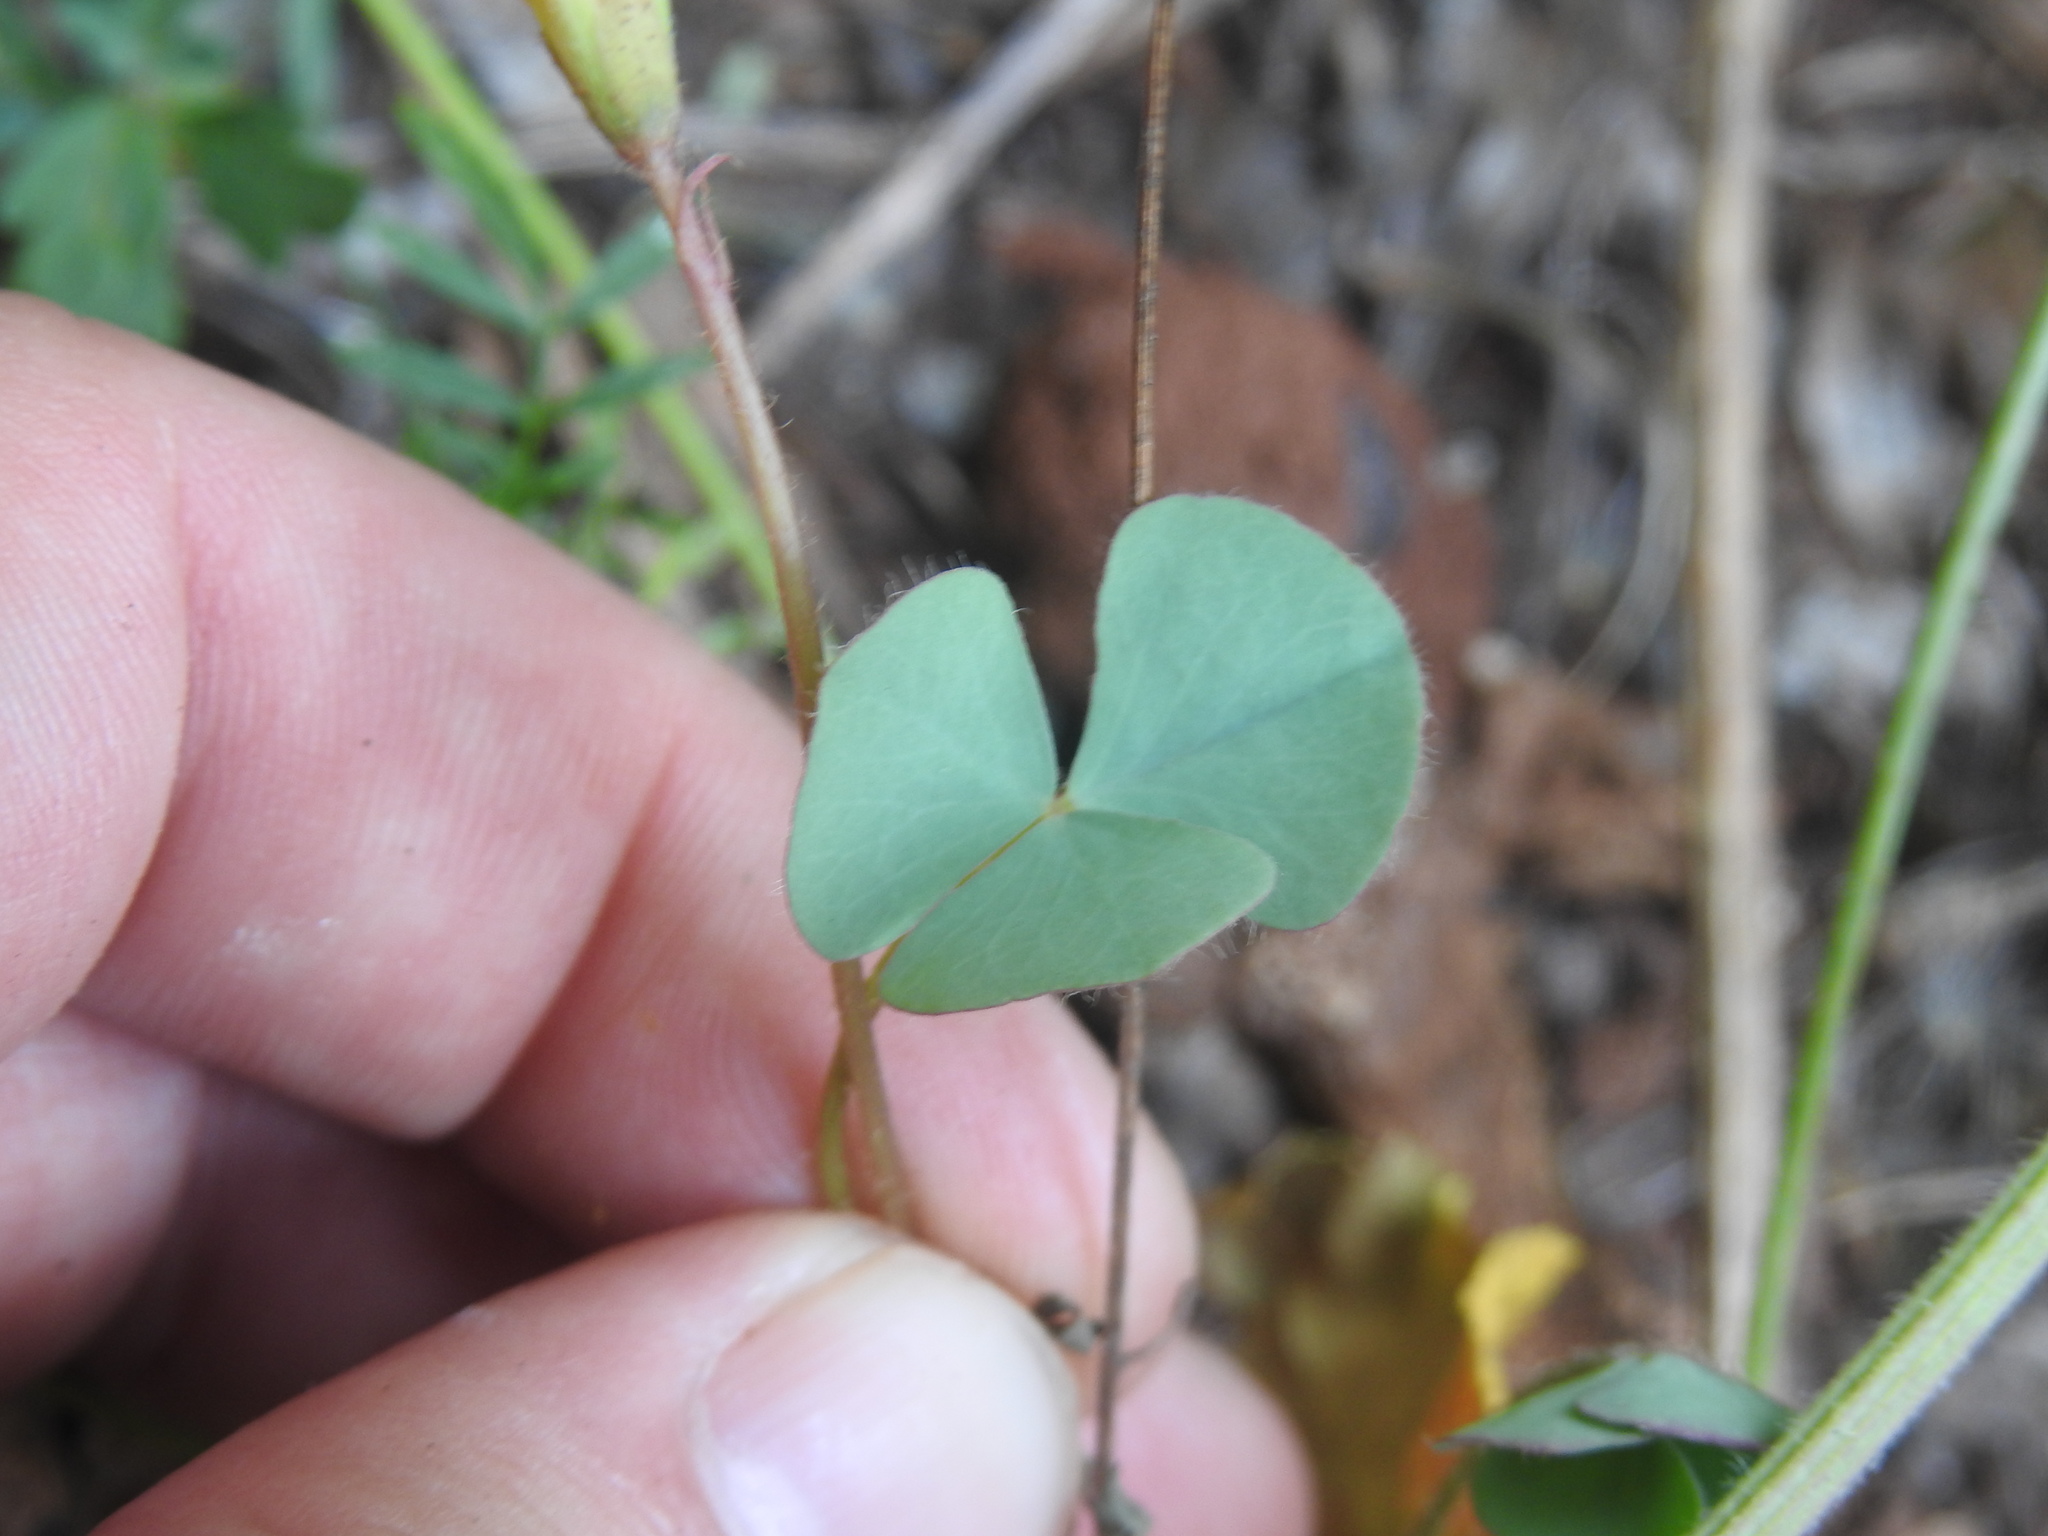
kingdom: Plantae
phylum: Tracheophyta
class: Magnoliopsida
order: Oxalidales
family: Oxalidaceae
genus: Oxalis
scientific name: Oxalis obliquifolia
